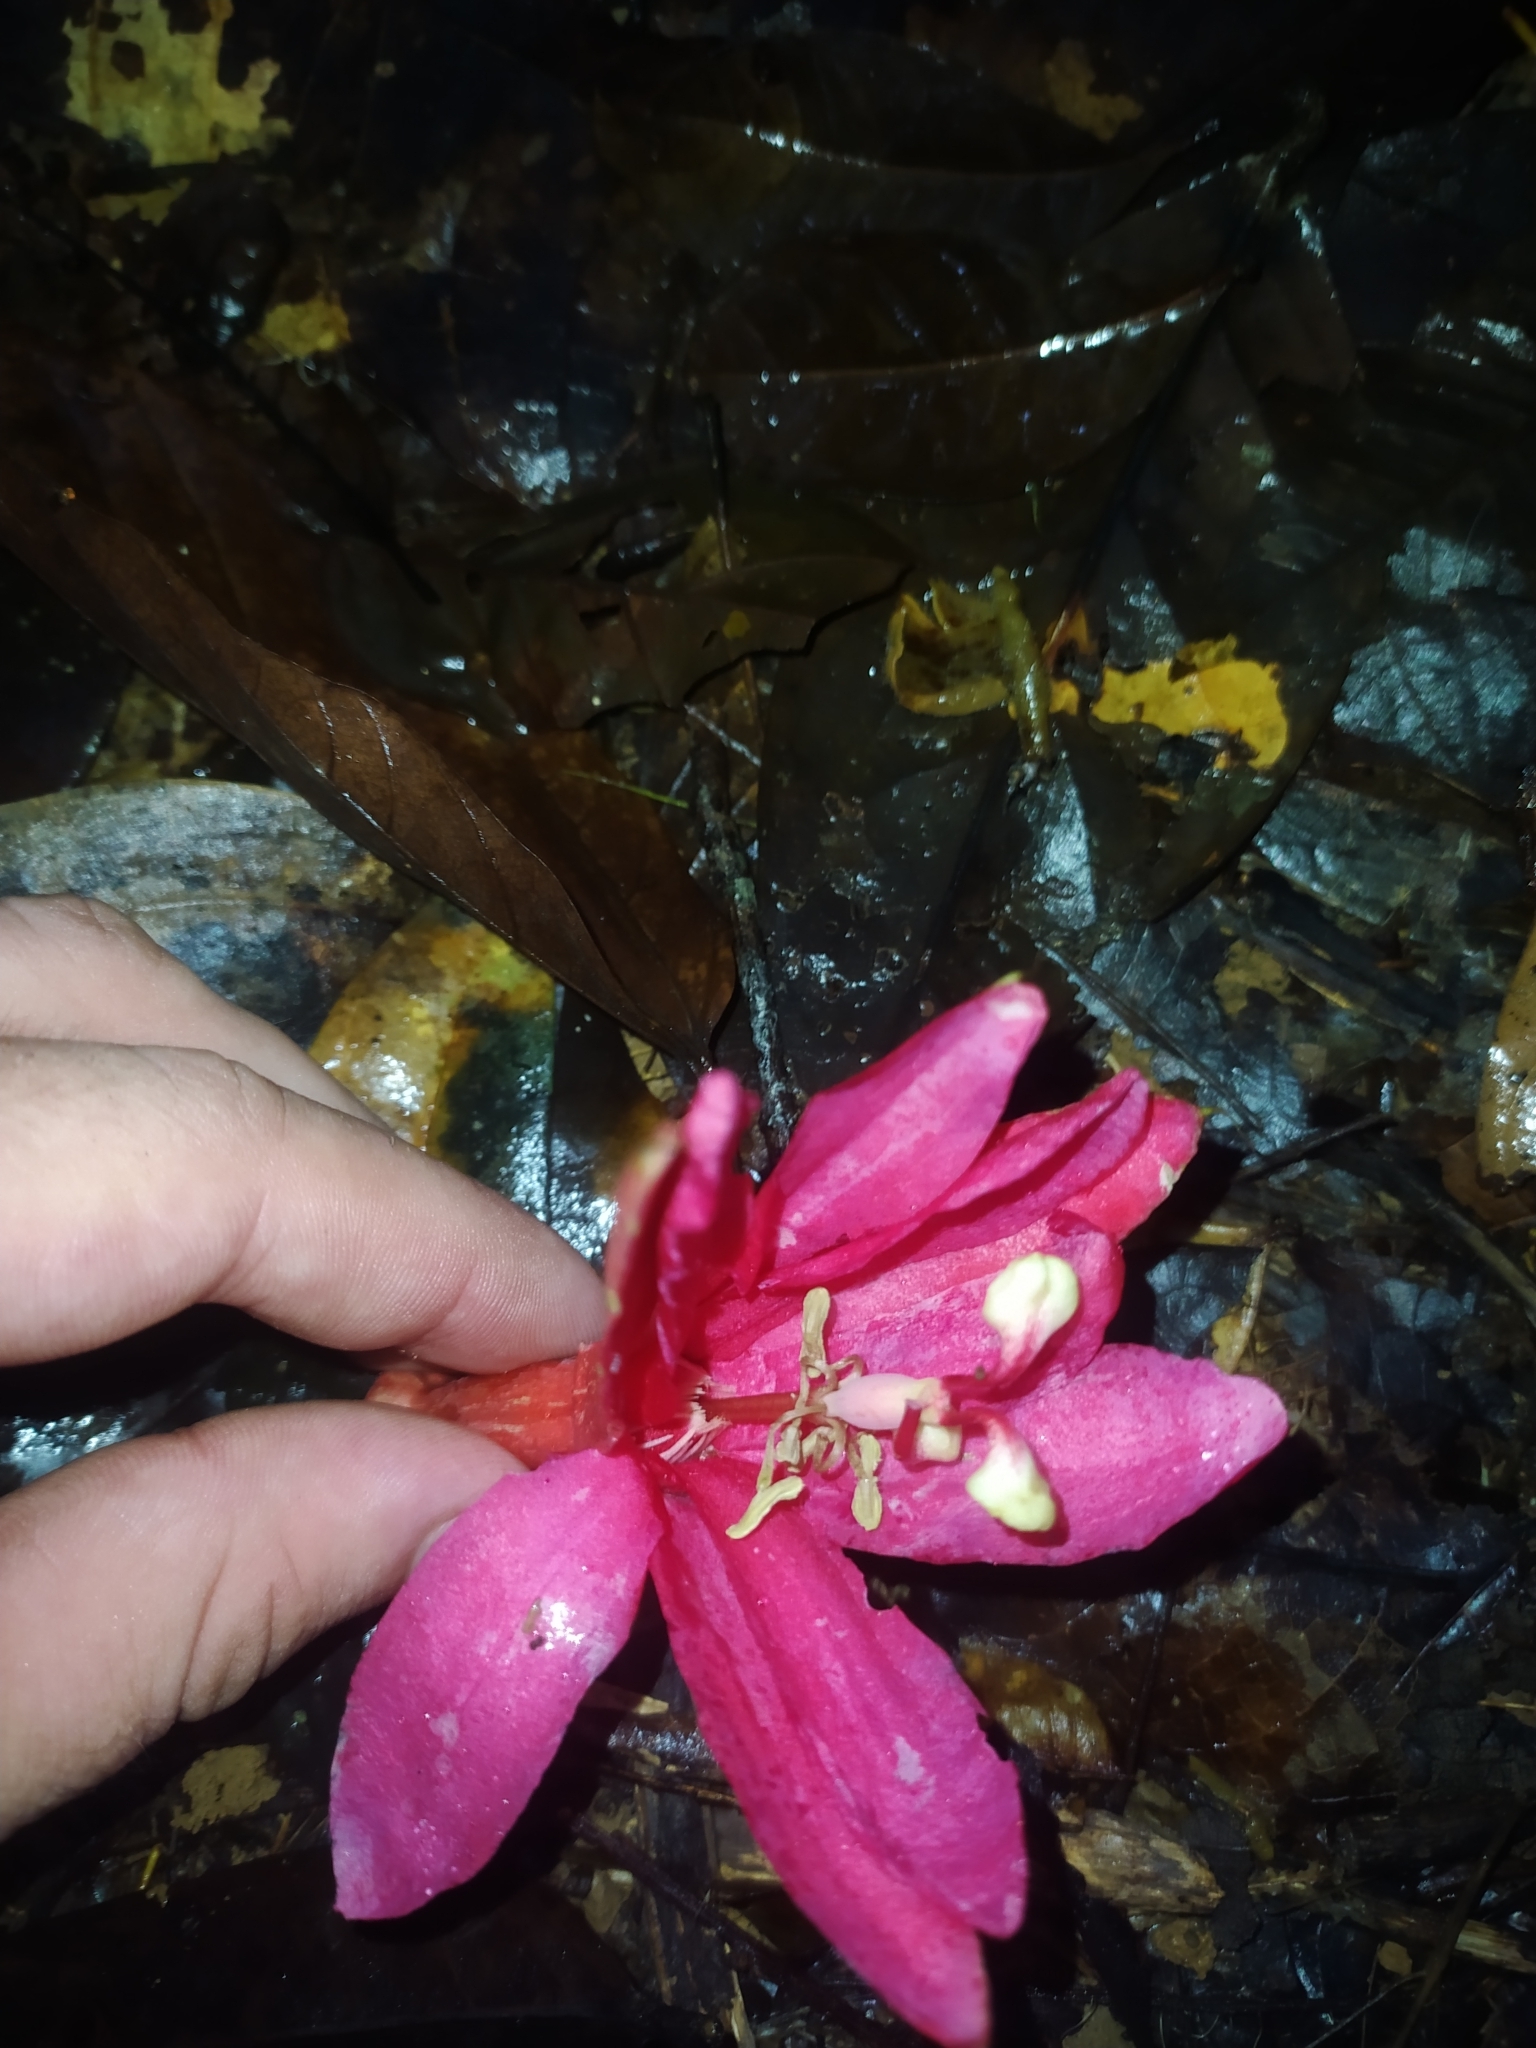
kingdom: Plantae
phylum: Tracheophyta
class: Magnoliopsida
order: Malpighiales
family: Passifloraceae
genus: Passiflora
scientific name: Passiflora glandulosa
